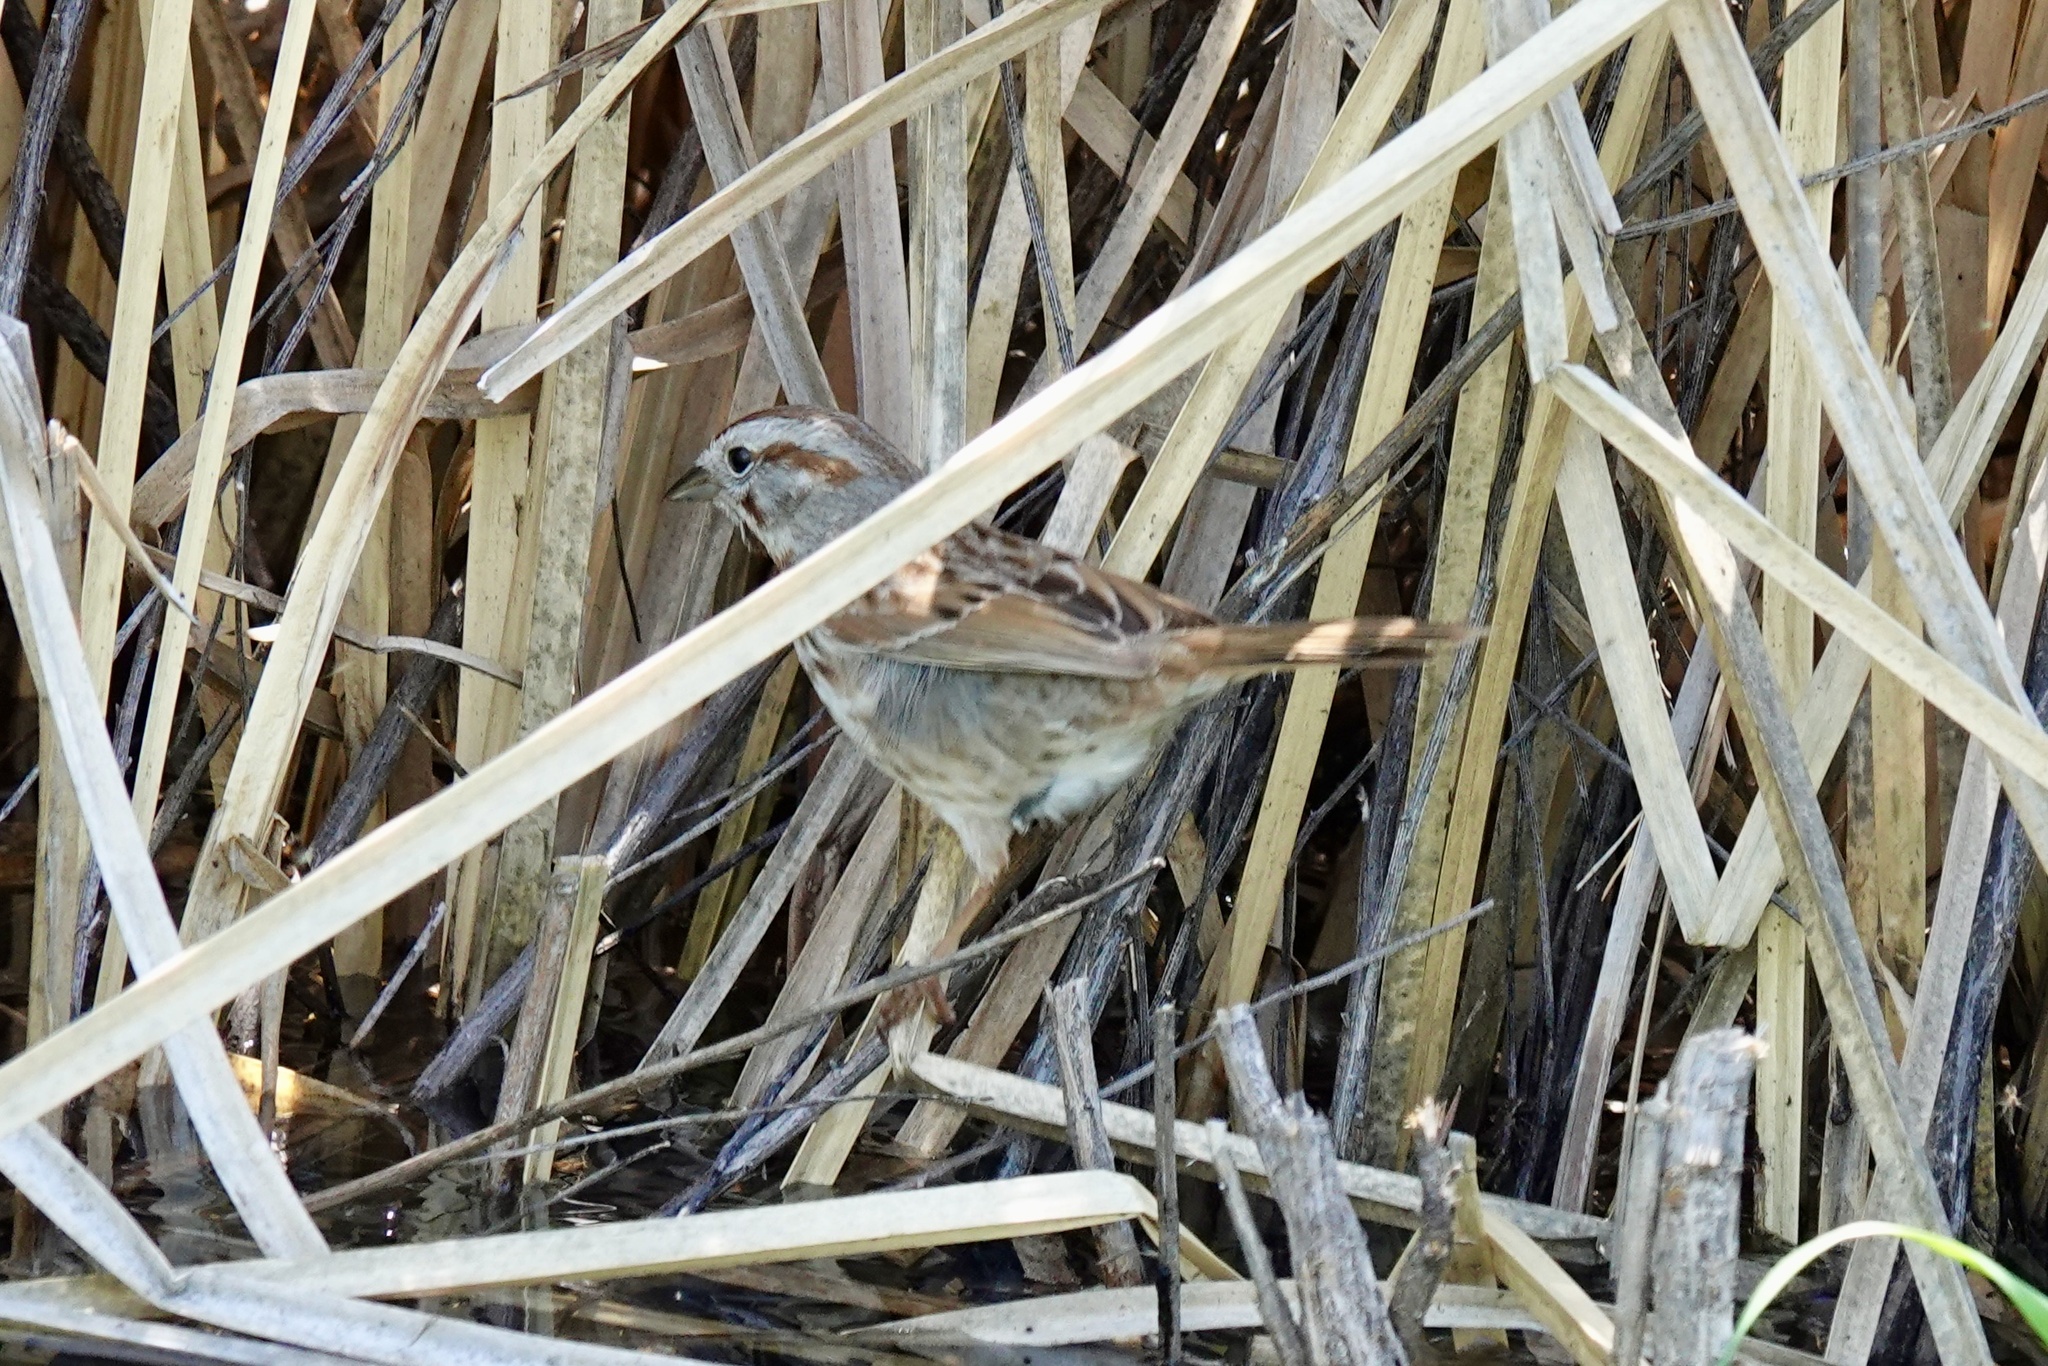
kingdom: Animalia
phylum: Chordata
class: Aves
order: Passeriformes
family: Passerellidae
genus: Melospiza
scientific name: Melospiza melodia
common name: Song sparrow
